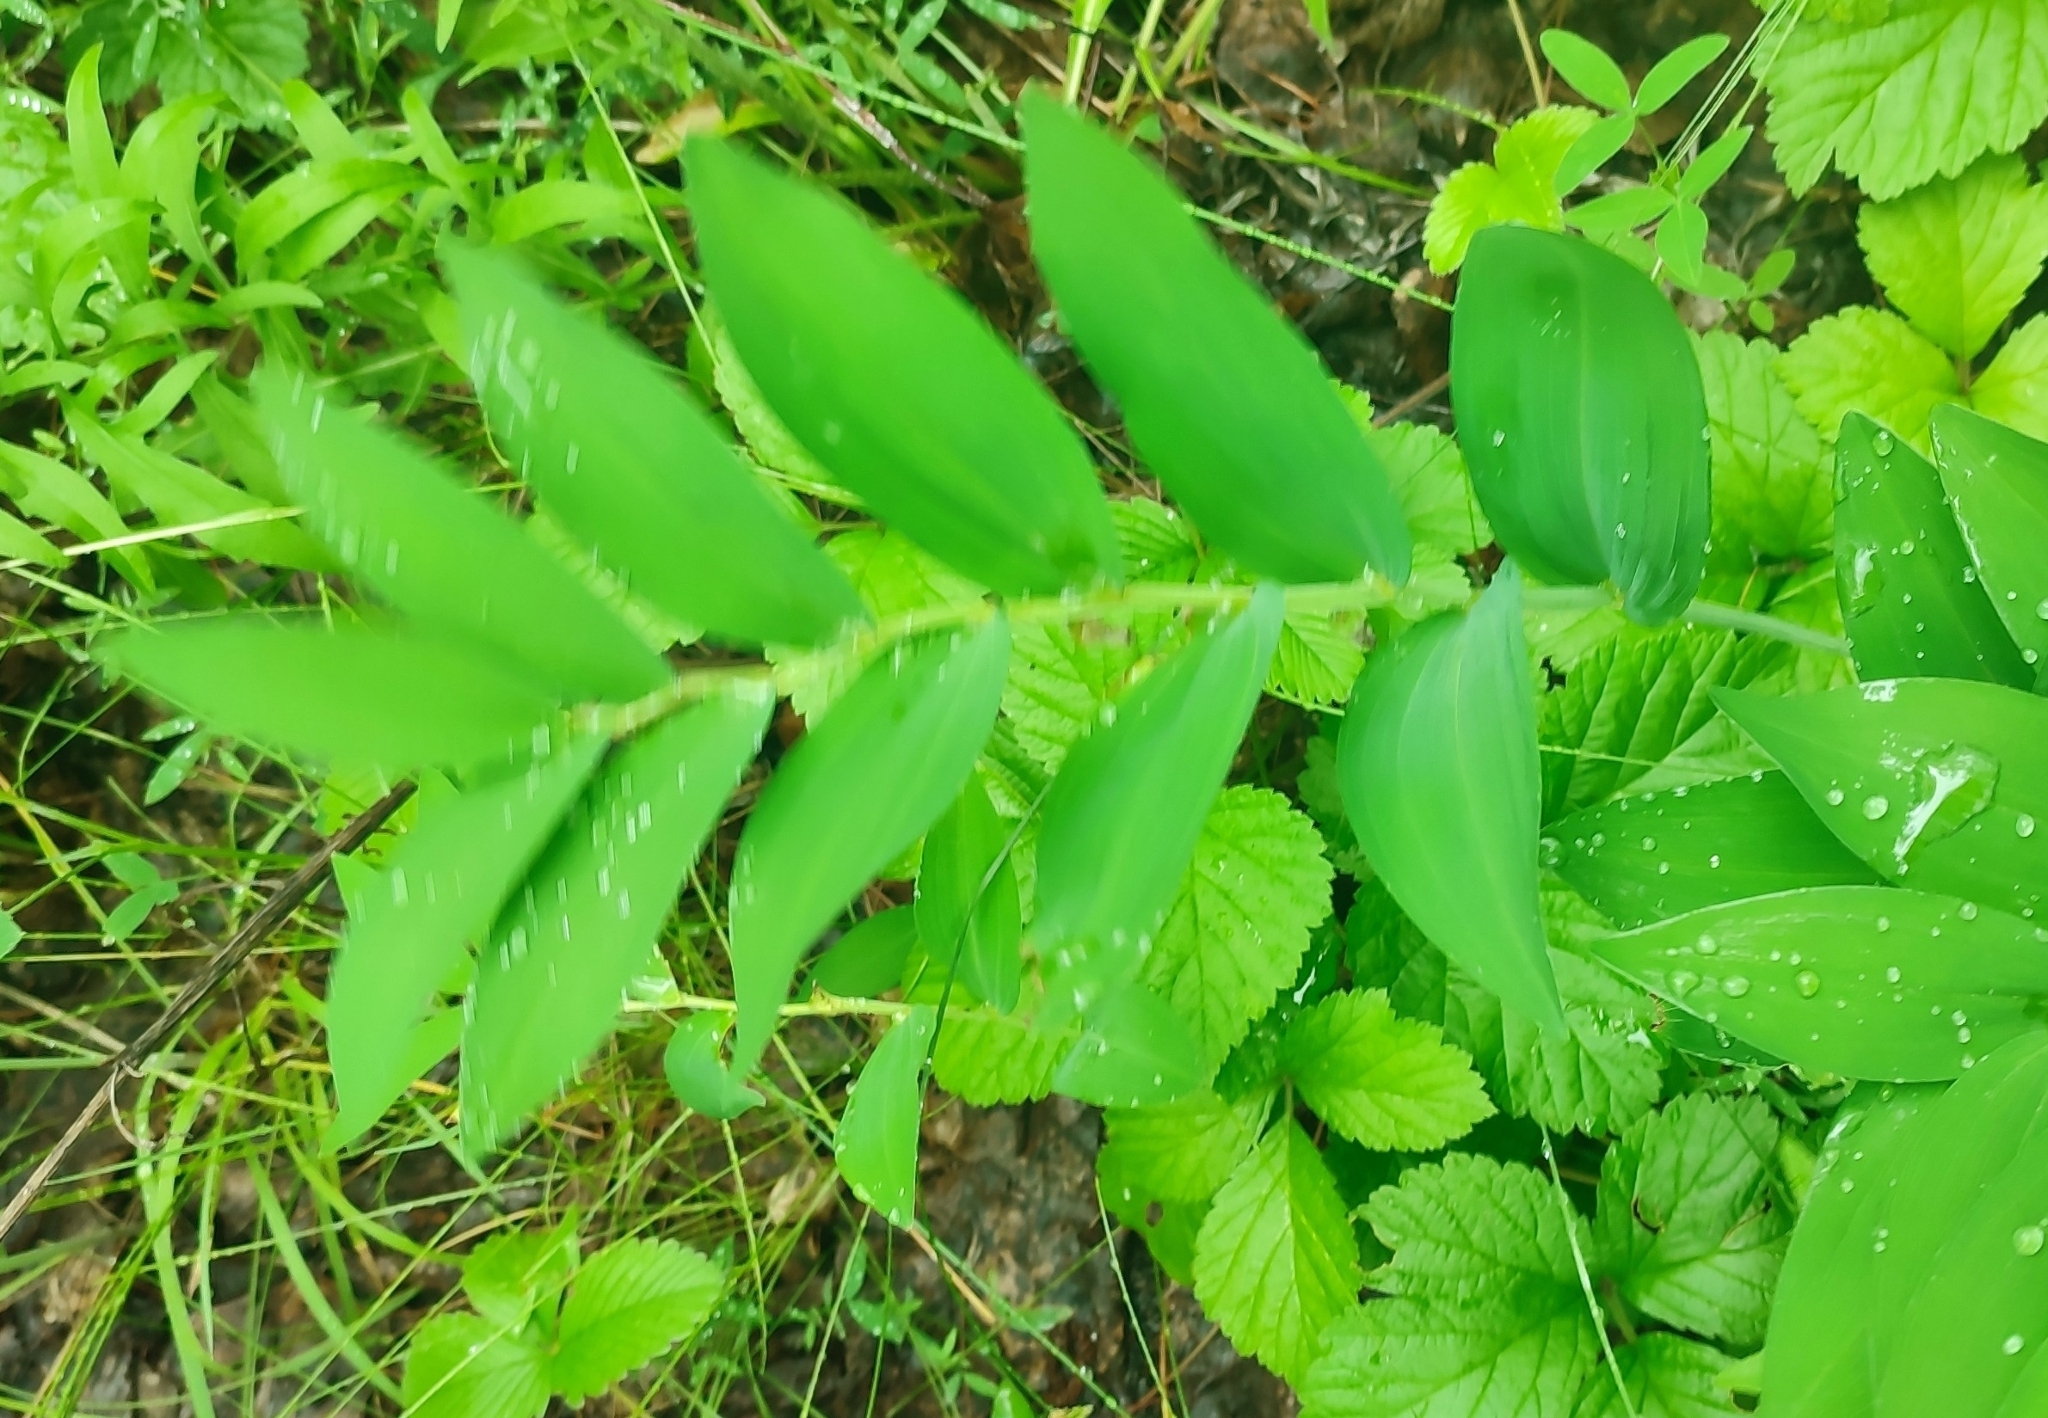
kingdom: Plantae
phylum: Tracheophyta
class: Liliopsida
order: Asparagales
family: Asparagaceae
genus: Polygonatum
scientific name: Polygonatum odoratum
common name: Angular solomon's-seal
